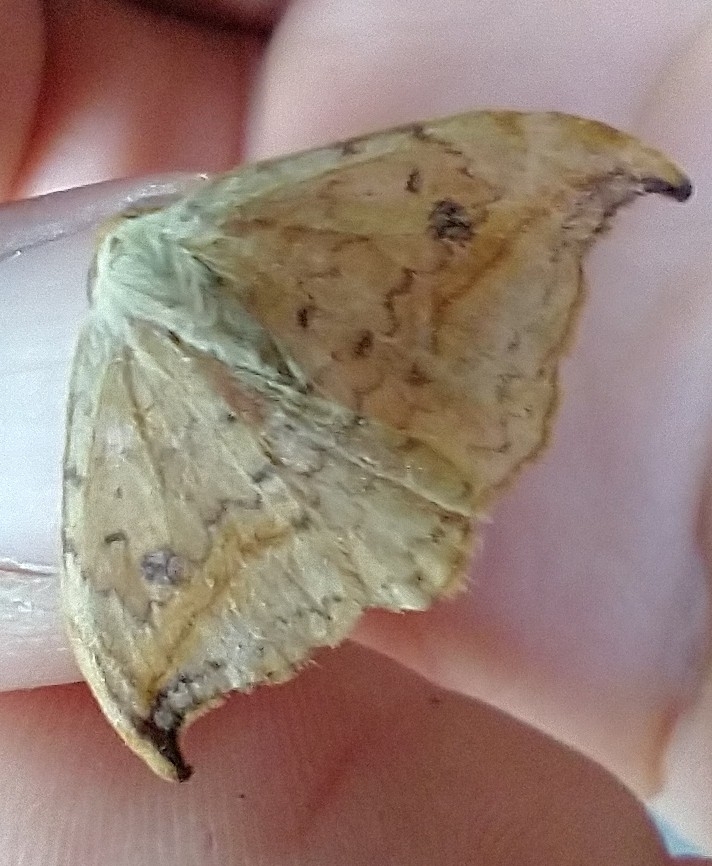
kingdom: Animalia
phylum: Arthropoda
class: Insecta
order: Lepidoptera
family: Drepanidae
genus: Drepana
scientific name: Drepana falcataria
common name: Pebble hook-tip
